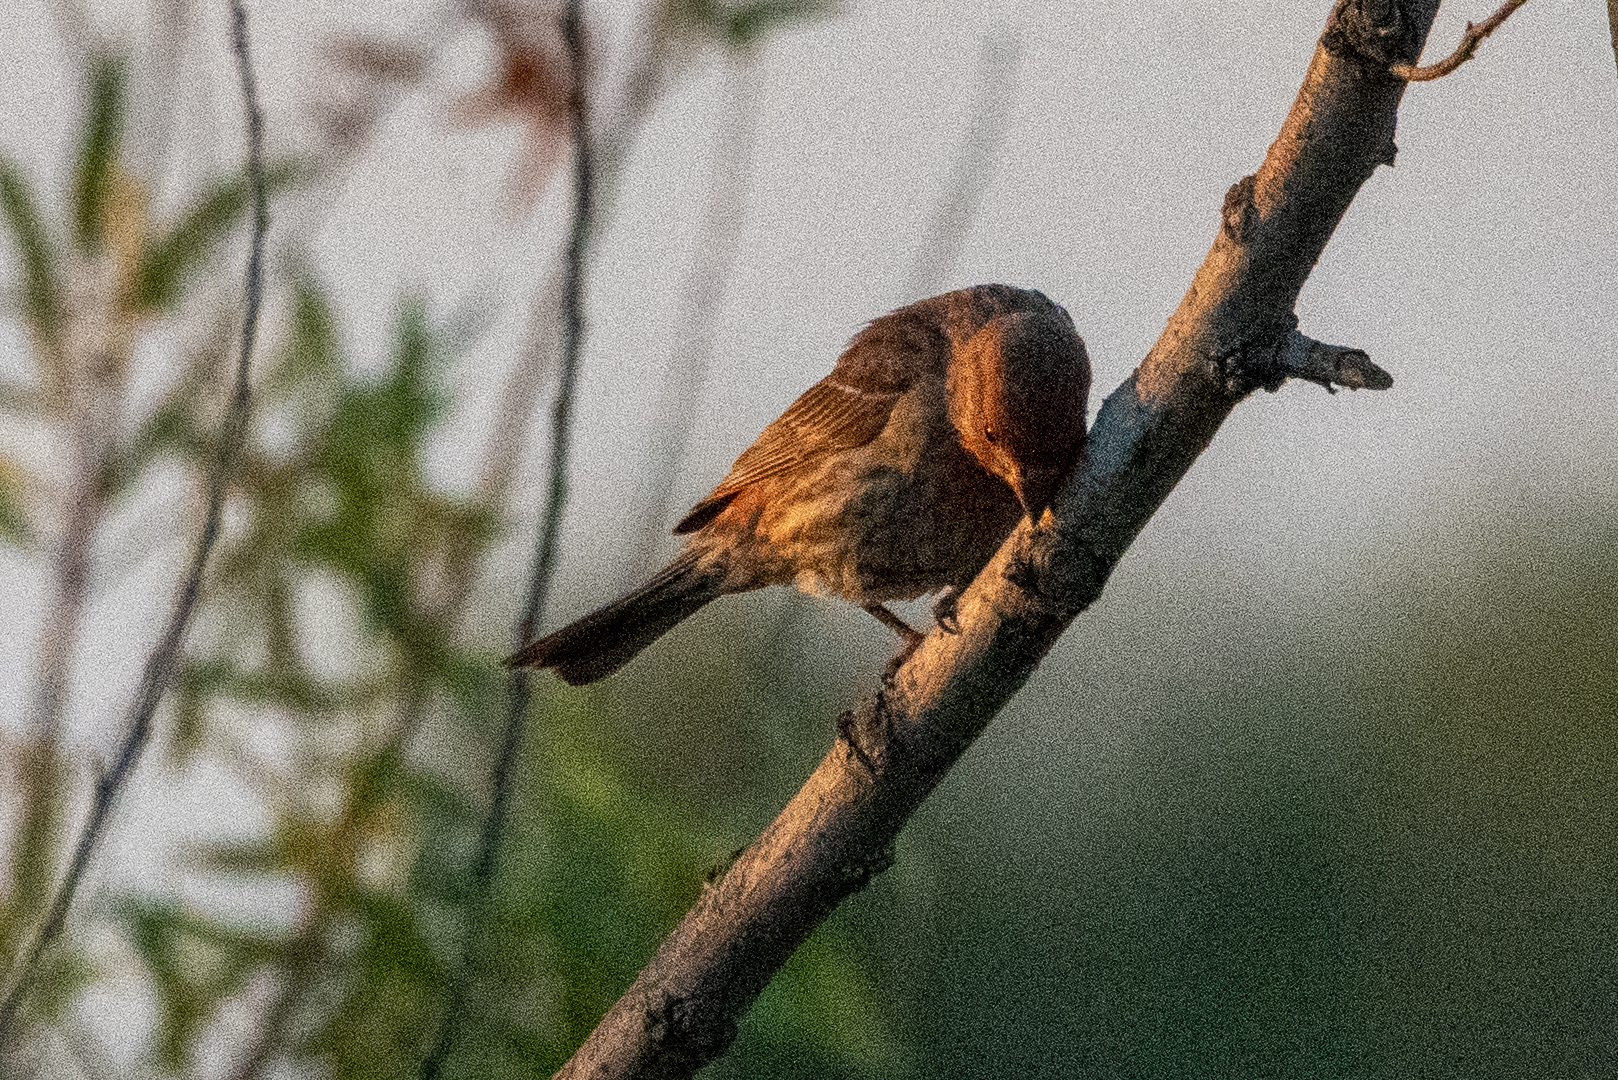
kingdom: Animalia
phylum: Chordata
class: Aves
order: Passeriformes
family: Fringillidae
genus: Haemorhous
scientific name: Haemorhous mexicanus
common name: House finch
